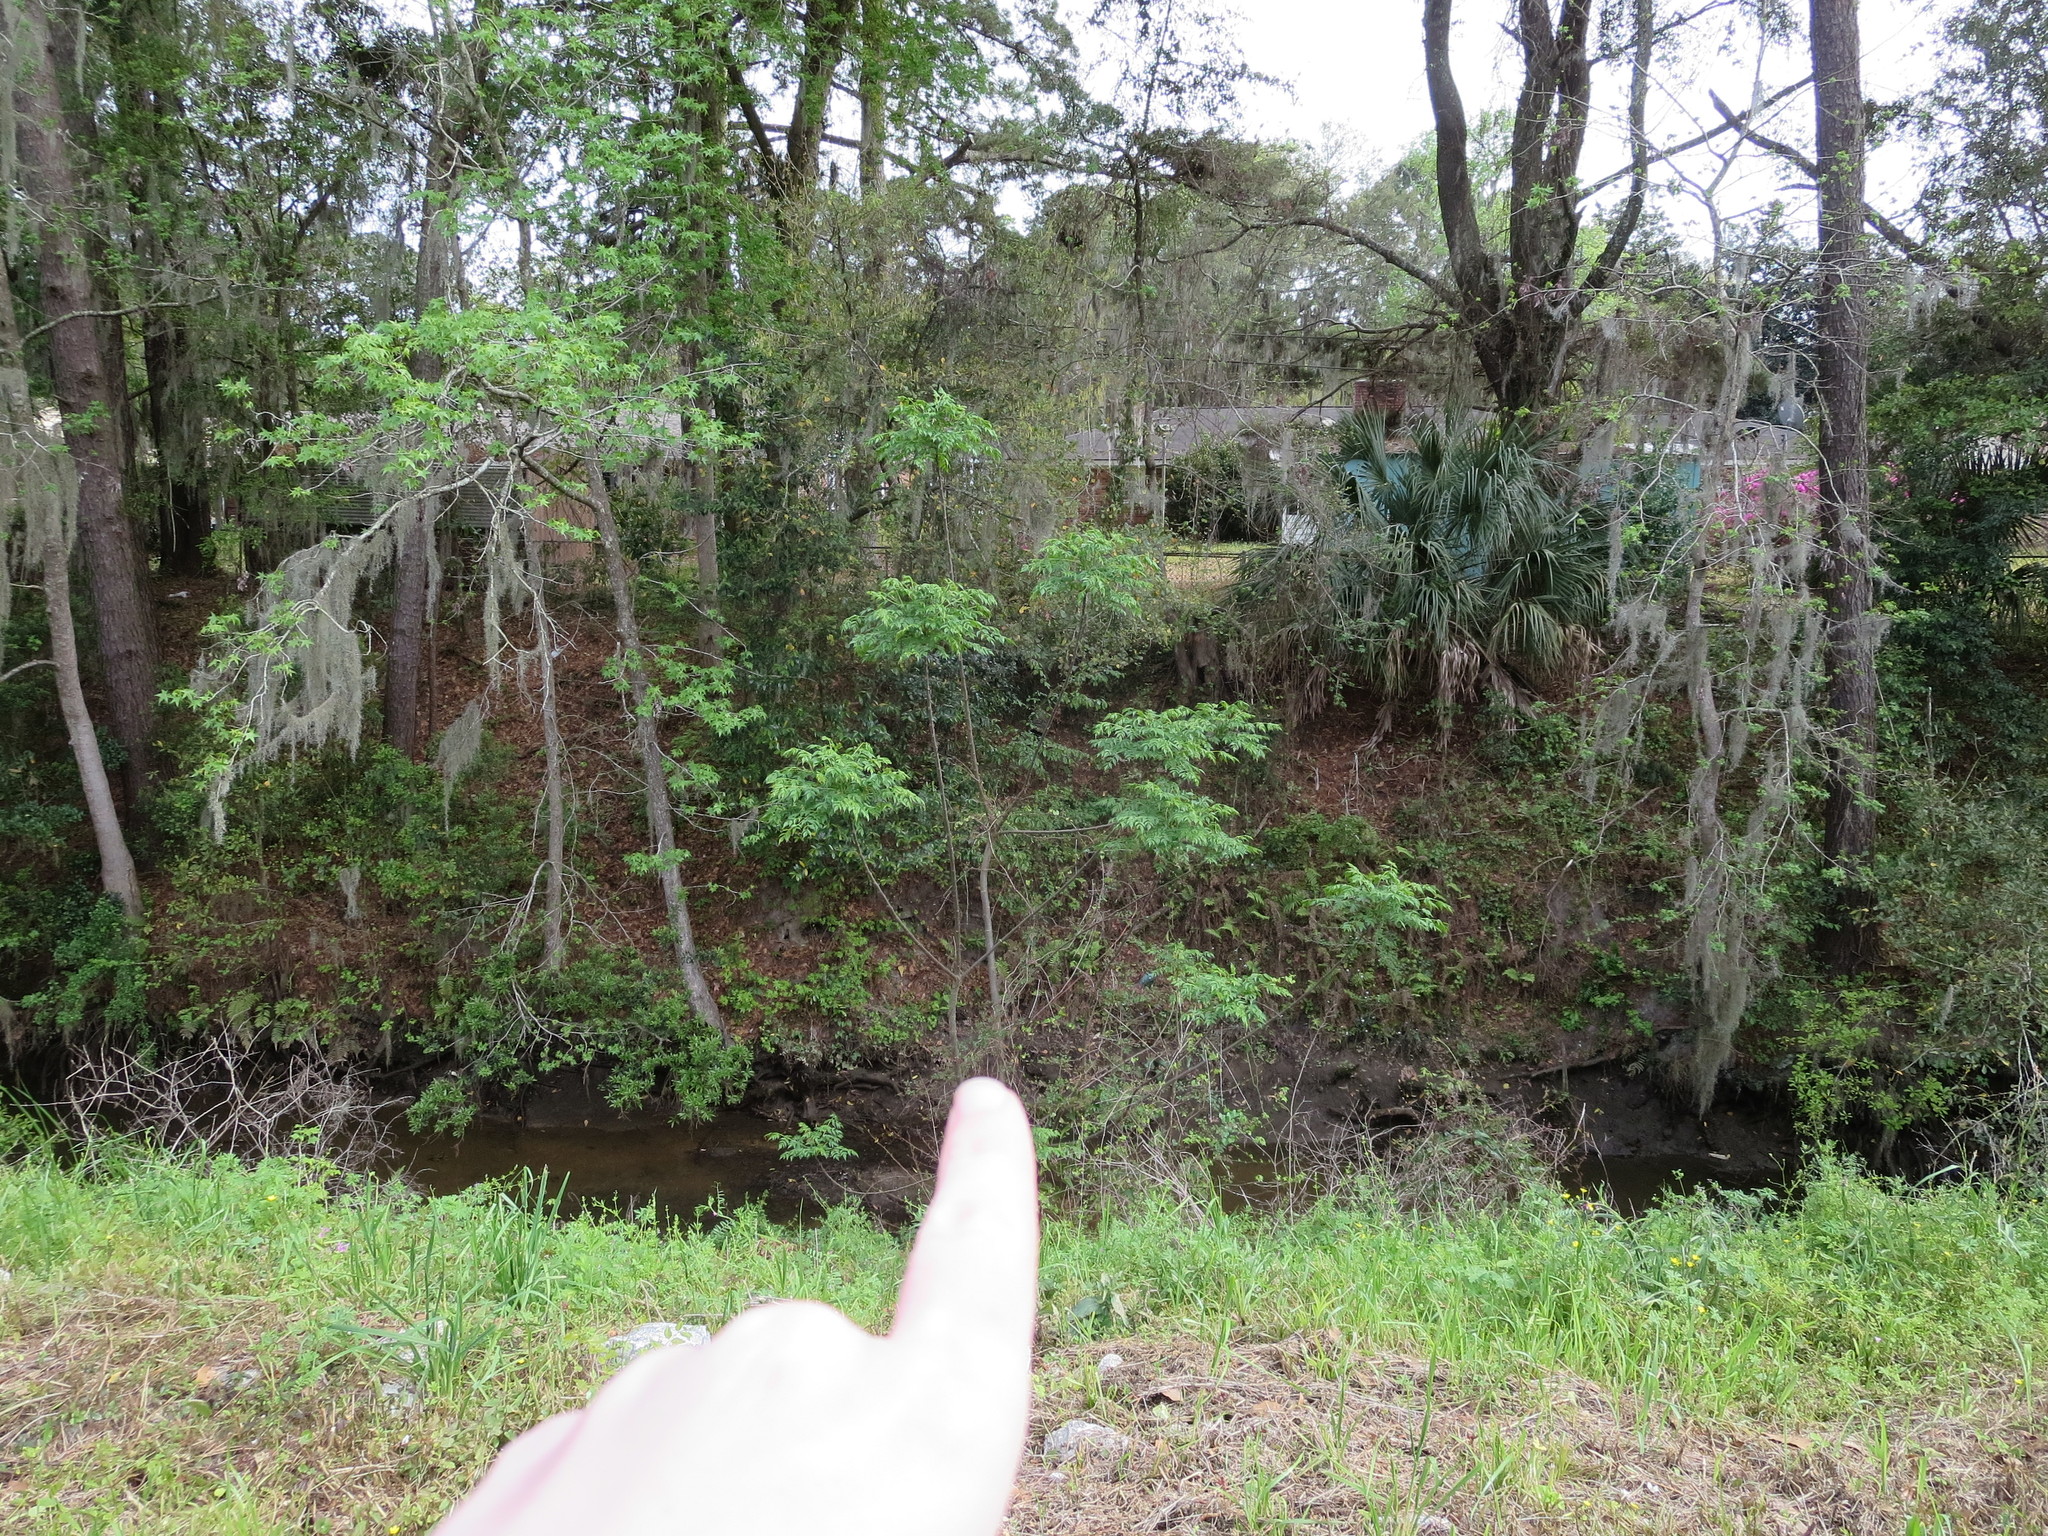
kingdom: Plantae
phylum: Tracheophyta
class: Magnoliopsida
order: Sapindales
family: Meliaceae
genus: Melia
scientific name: Melia azedarach
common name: Chinaberrytree
